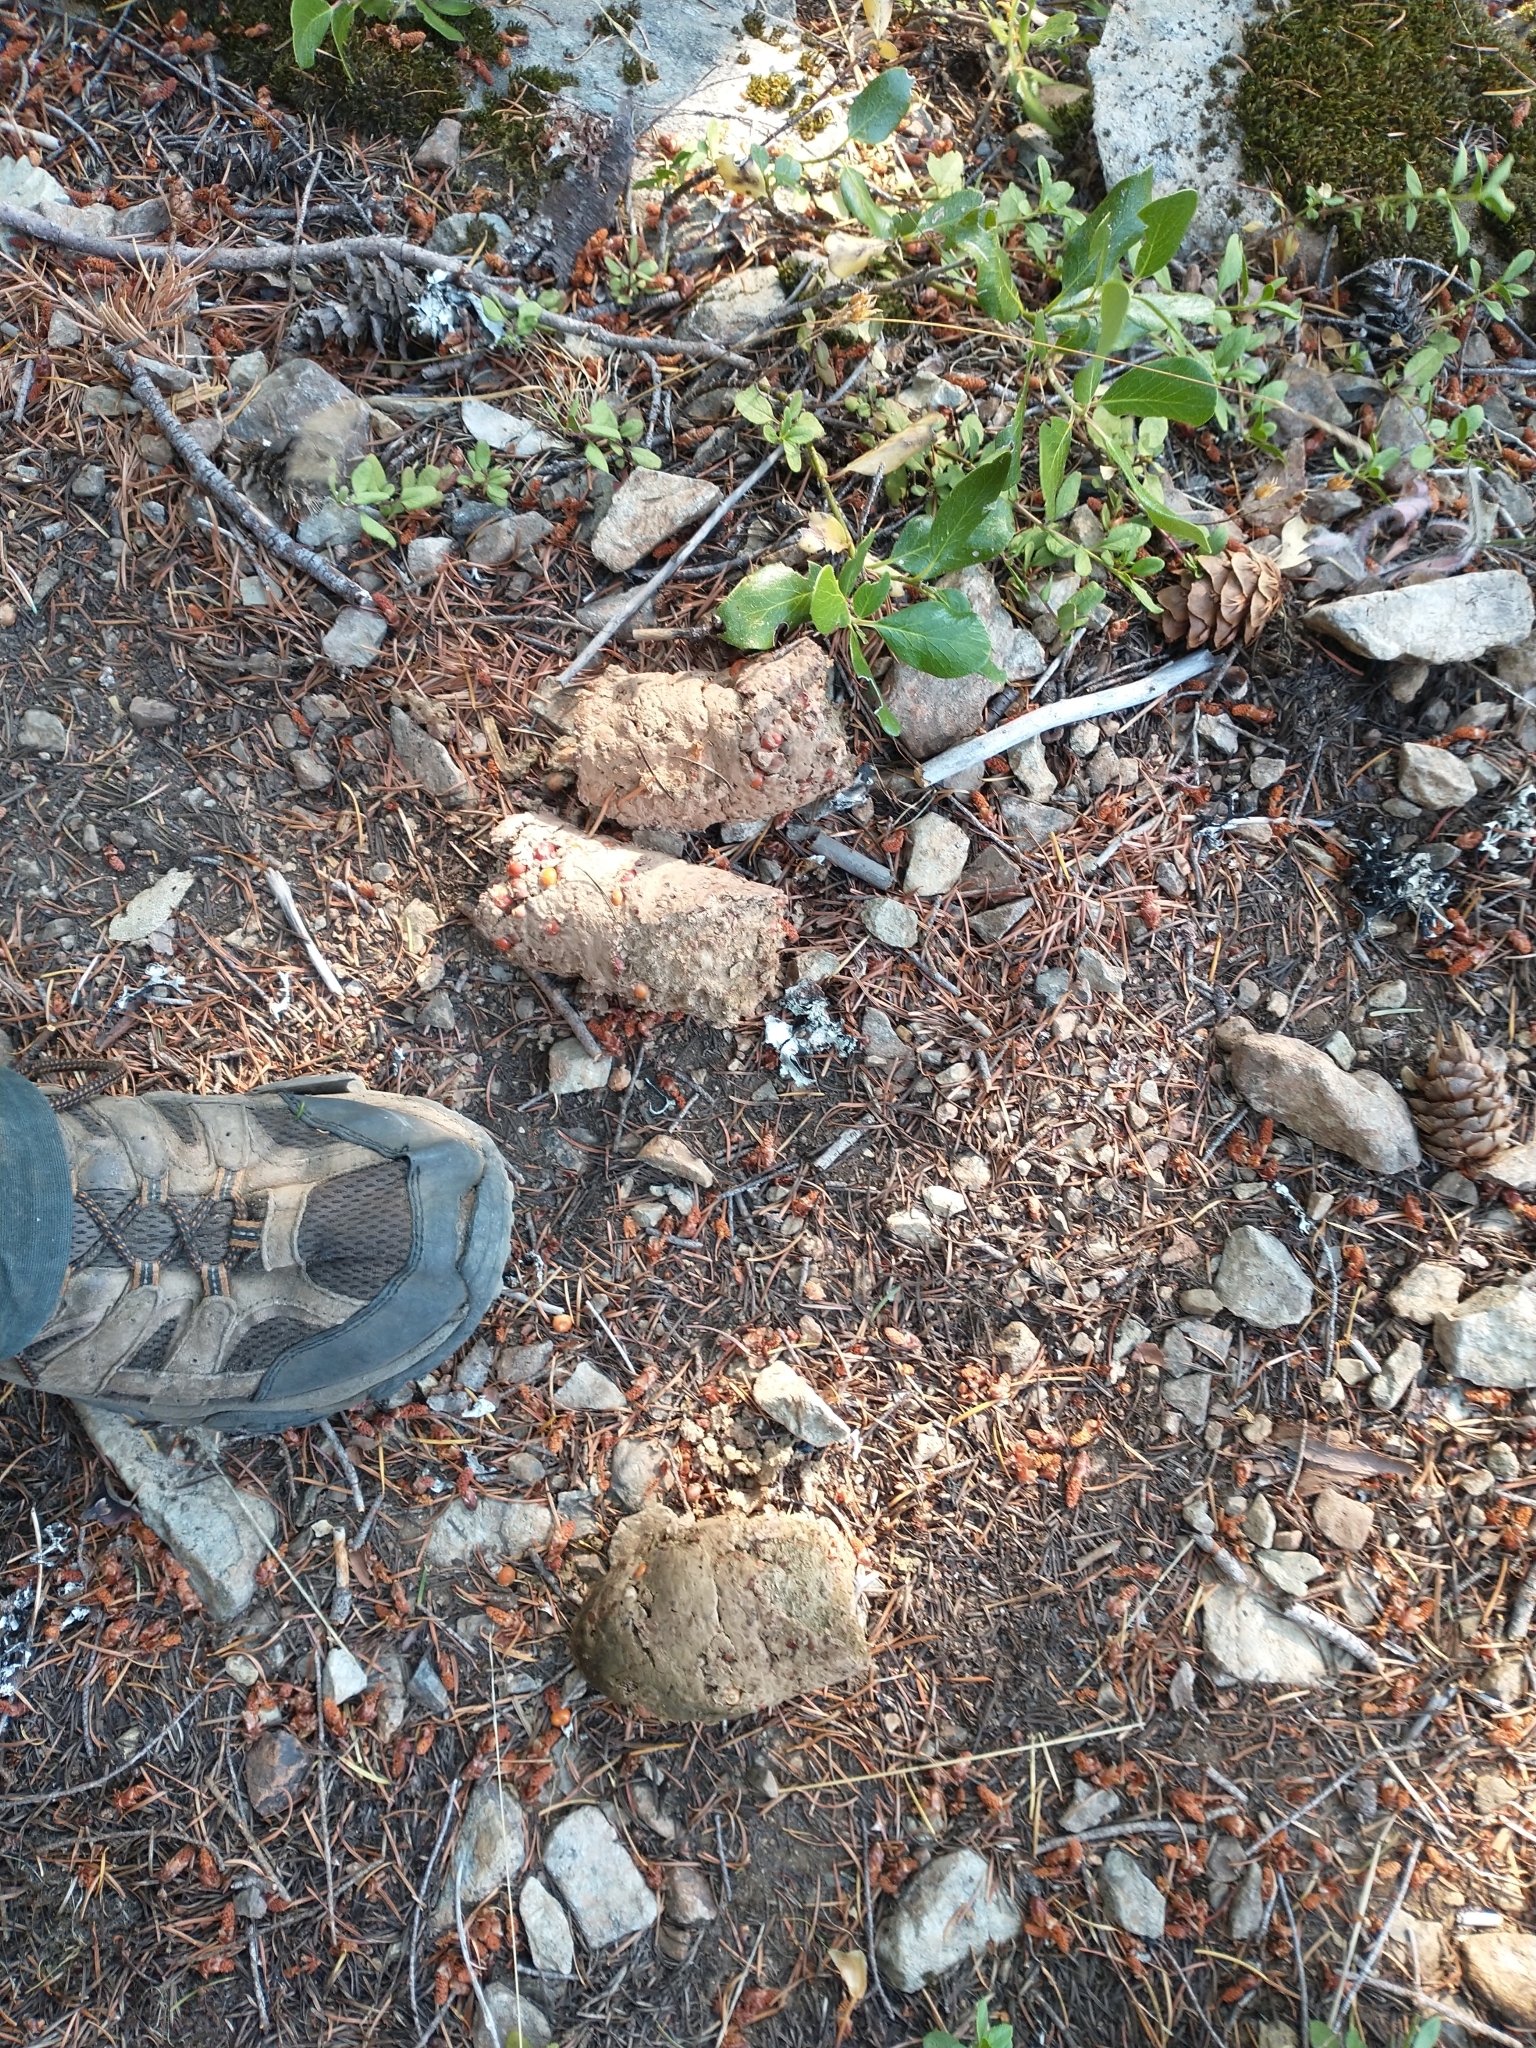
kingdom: Animalia
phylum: Chordata
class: Mammalia
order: Carnivora
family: Ursidae
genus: Ursus
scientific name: Ursus americanus
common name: American black bear
